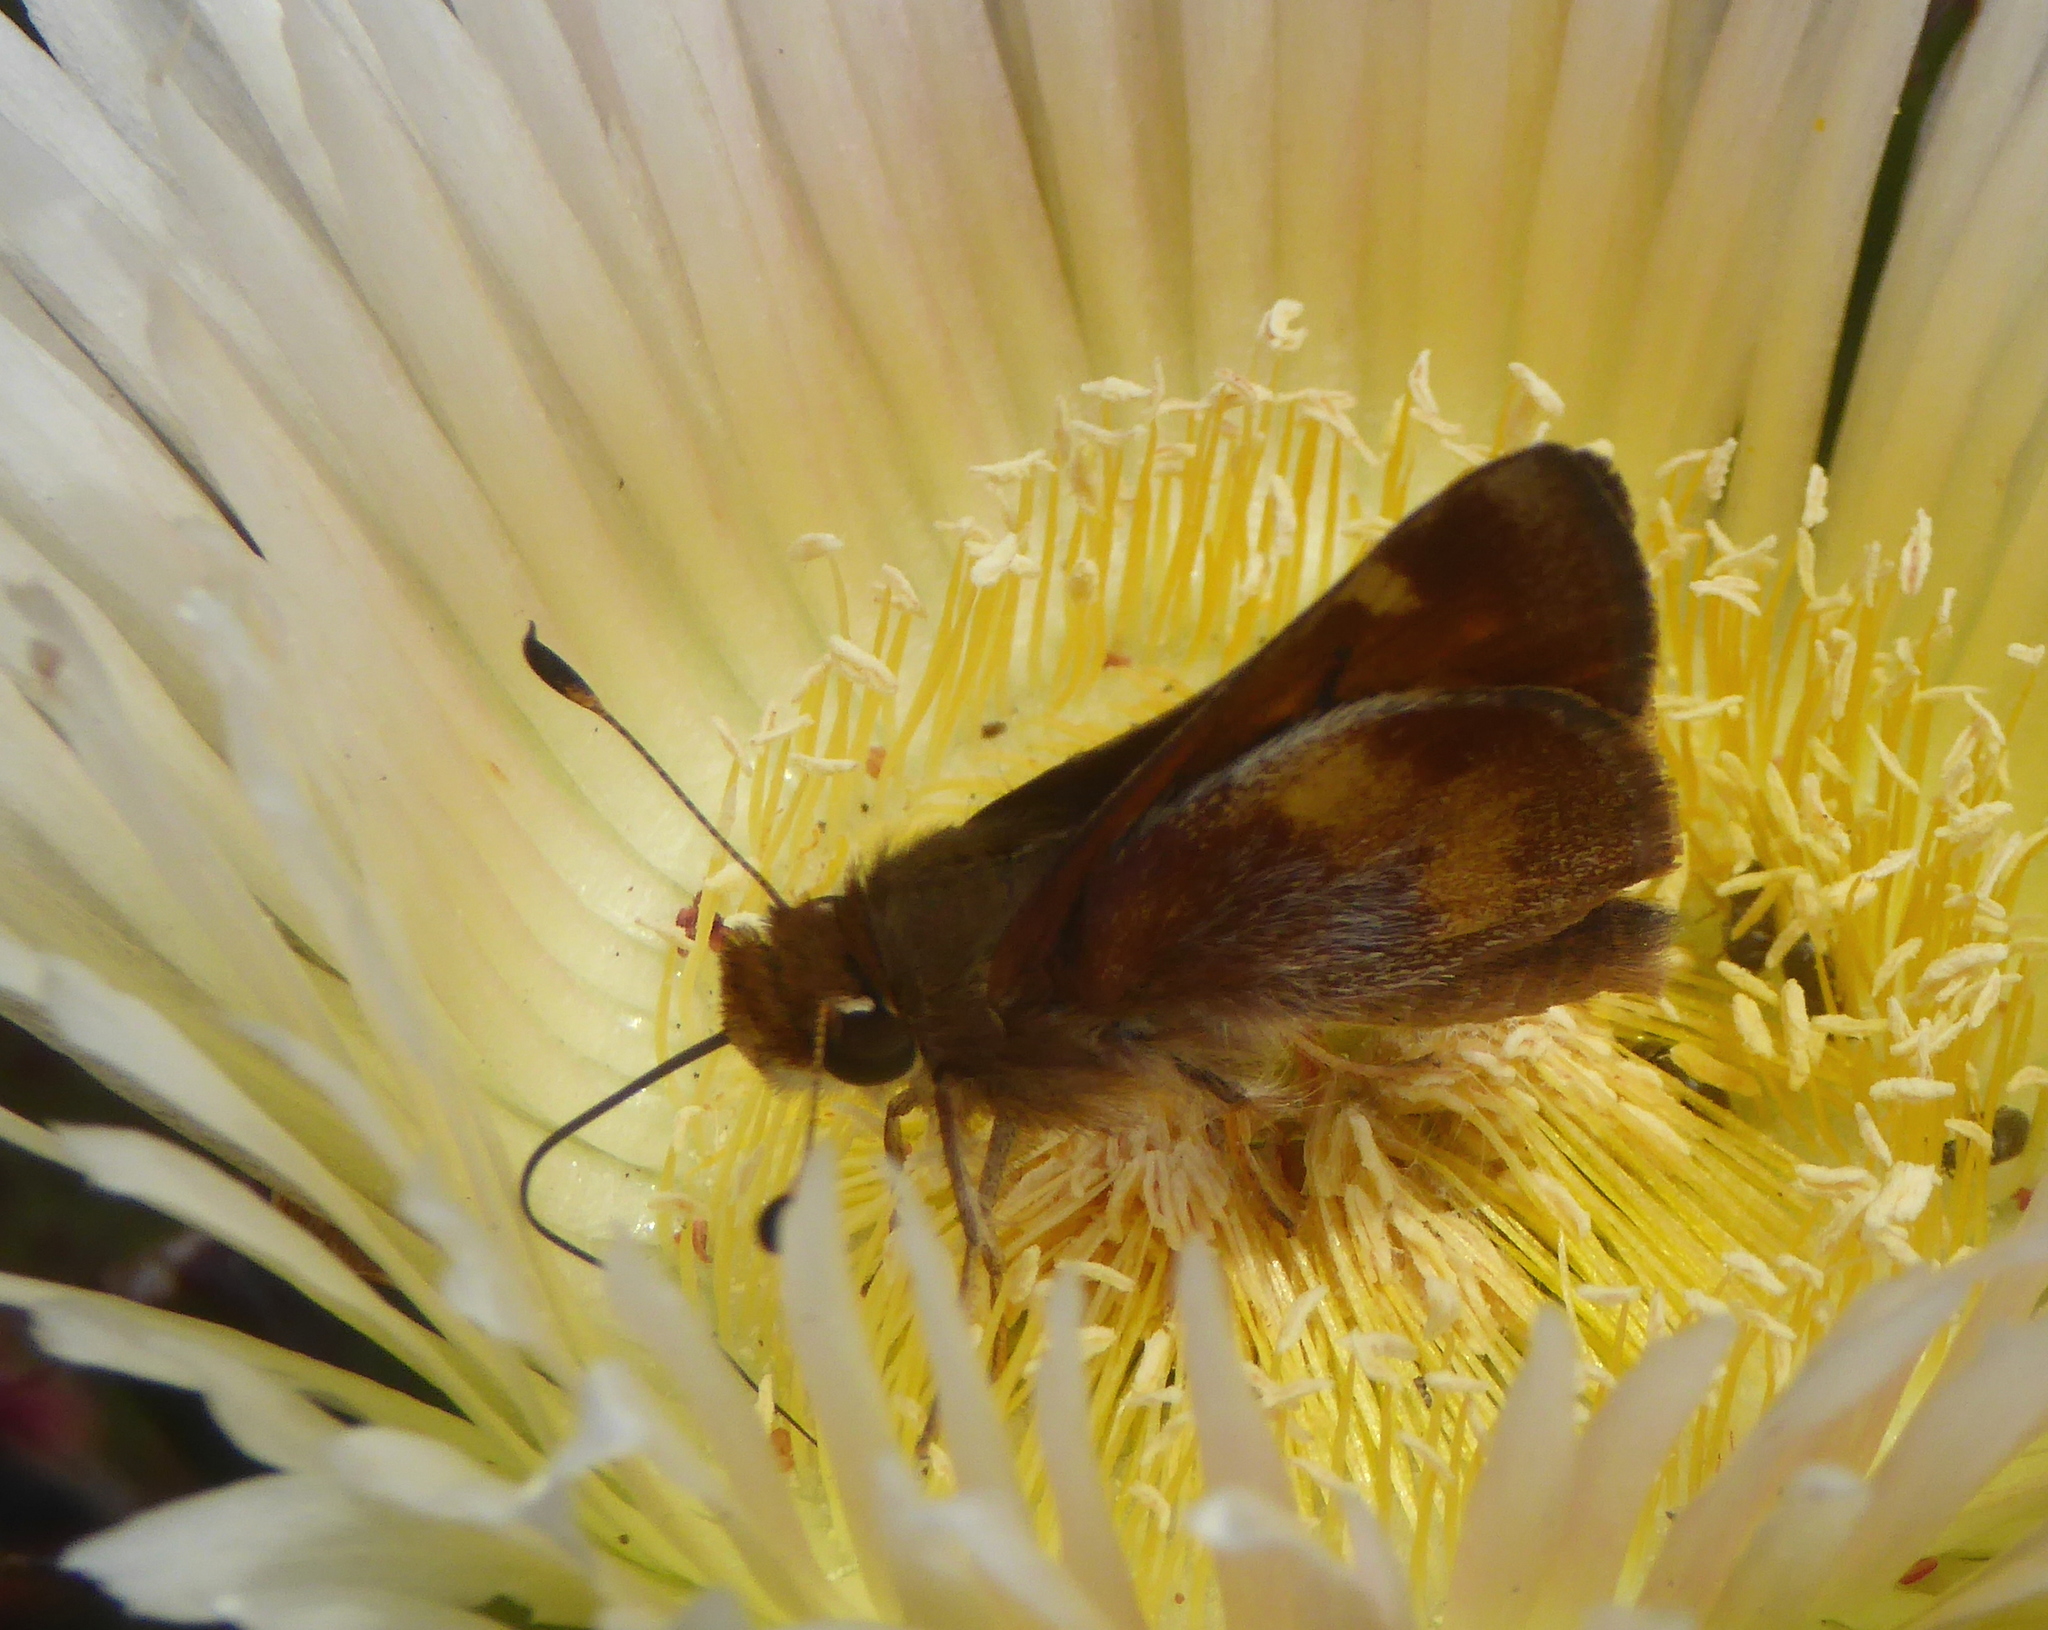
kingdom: Animalia
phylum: Arthropoda
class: Insecta
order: Lepidoptera
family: Hesperiidae
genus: Lon
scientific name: Lon melane
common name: Umber skipper
